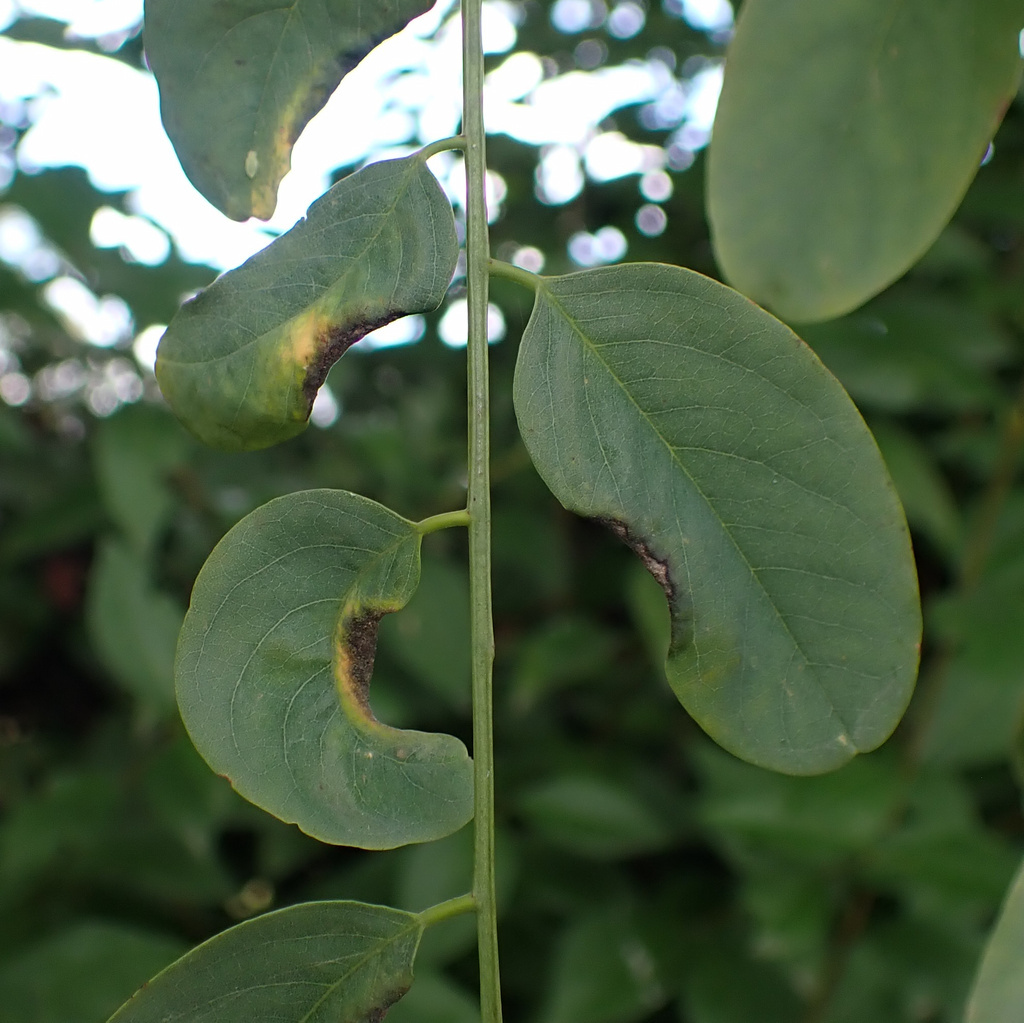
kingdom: Animalia
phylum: Arthropoda
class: Insecta
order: Diptera
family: Cecidomyiidae
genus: Obolodiplosis
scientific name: Obolodiplosis robiniae
